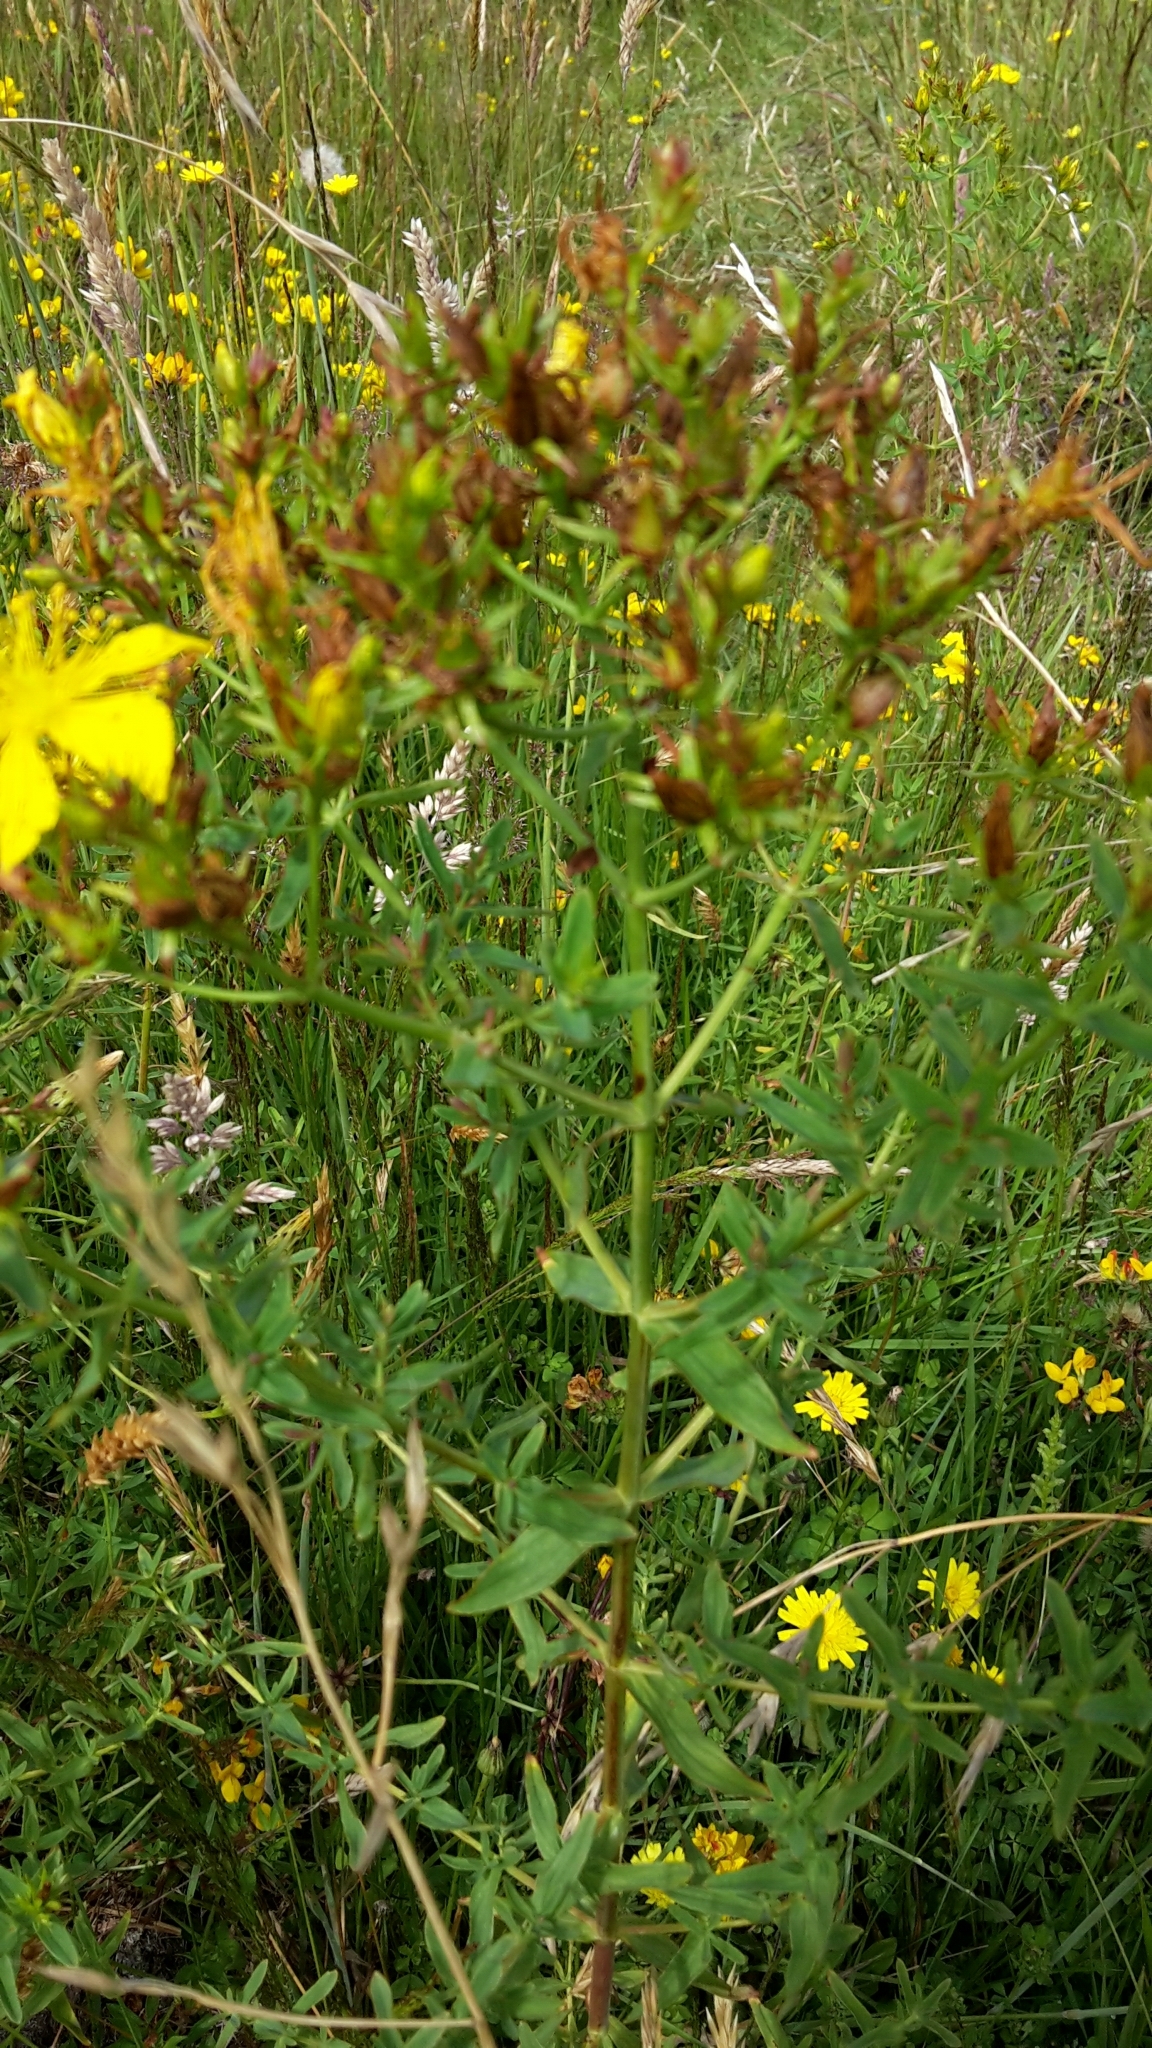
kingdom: Plantae
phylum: Tracheophyta
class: Magnoliopsida
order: Malpighiales
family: Hypericaceae
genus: Hypericum
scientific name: Hypericum perforatum
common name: Common st. johnswort
